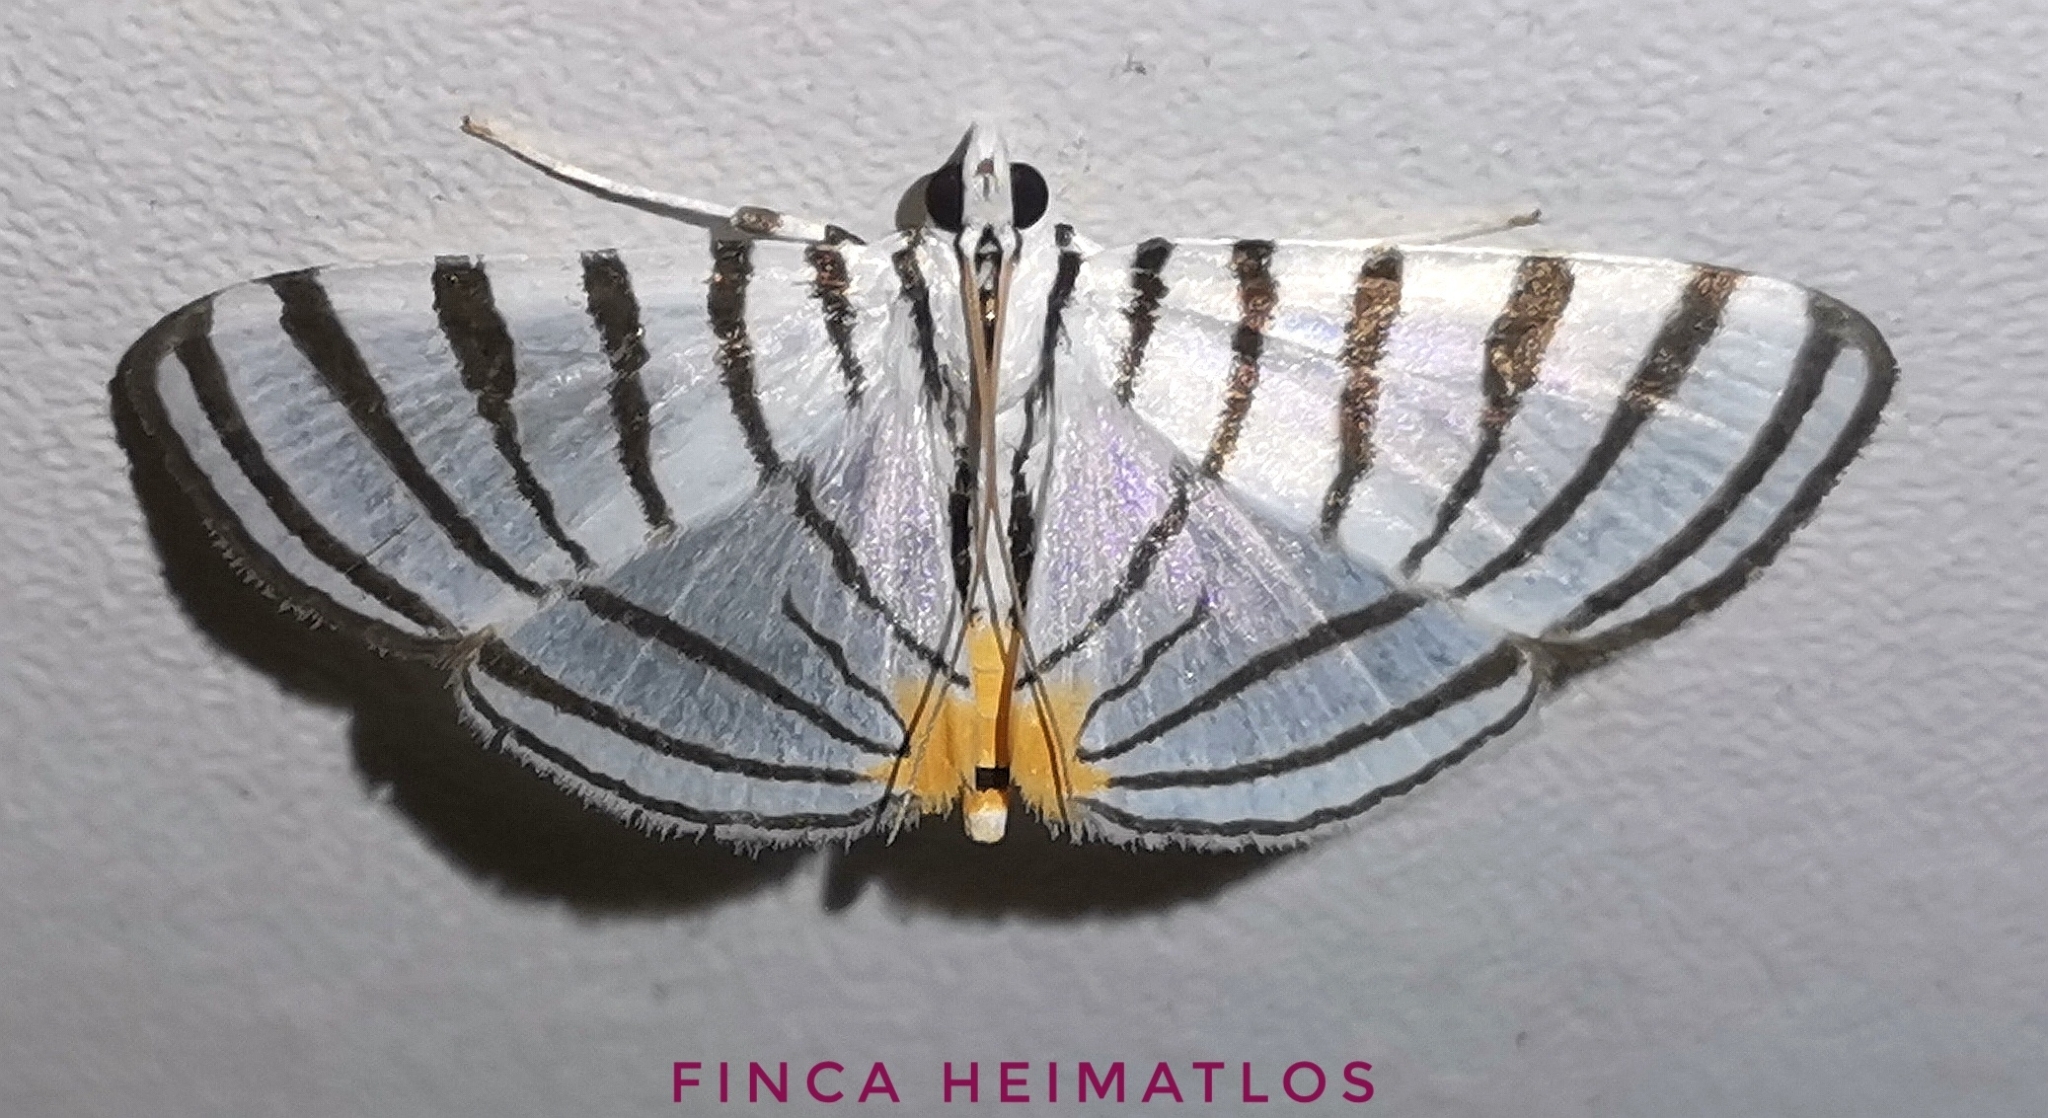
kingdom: Animalia
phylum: Arthropoda
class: Insecta
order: Lepidoptera
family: Crambidae
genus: Conchylodes
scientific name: Conchylodes grammaphora
